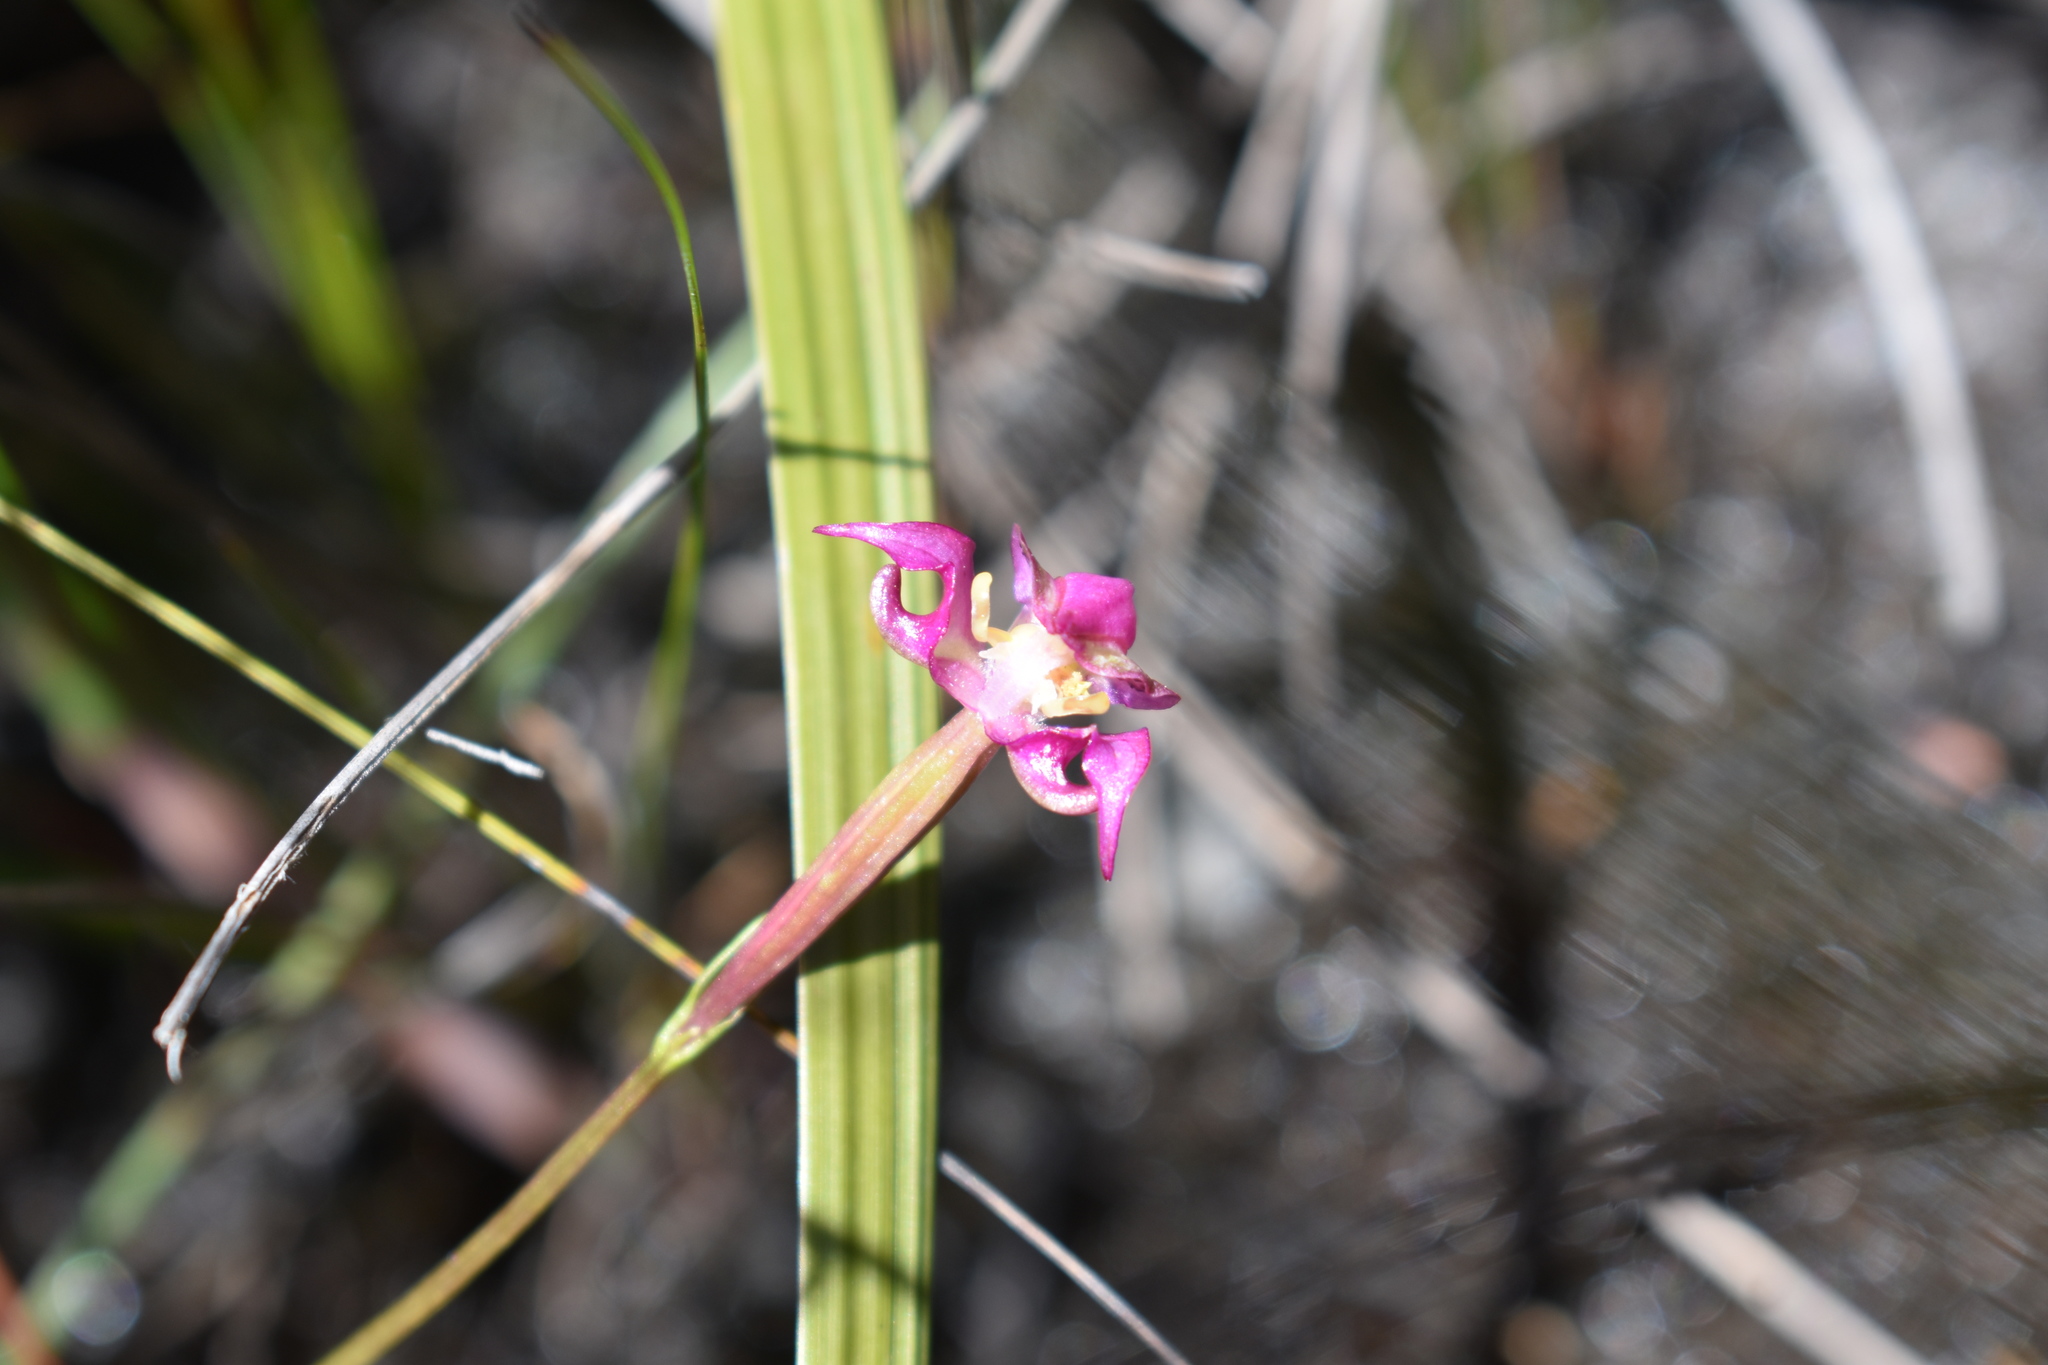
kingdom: Plantae
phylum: Tracheophyta
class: Liliopsida
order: Asparagales
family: Orchidaceae
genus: Disperis
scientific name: Disperis paludosa
